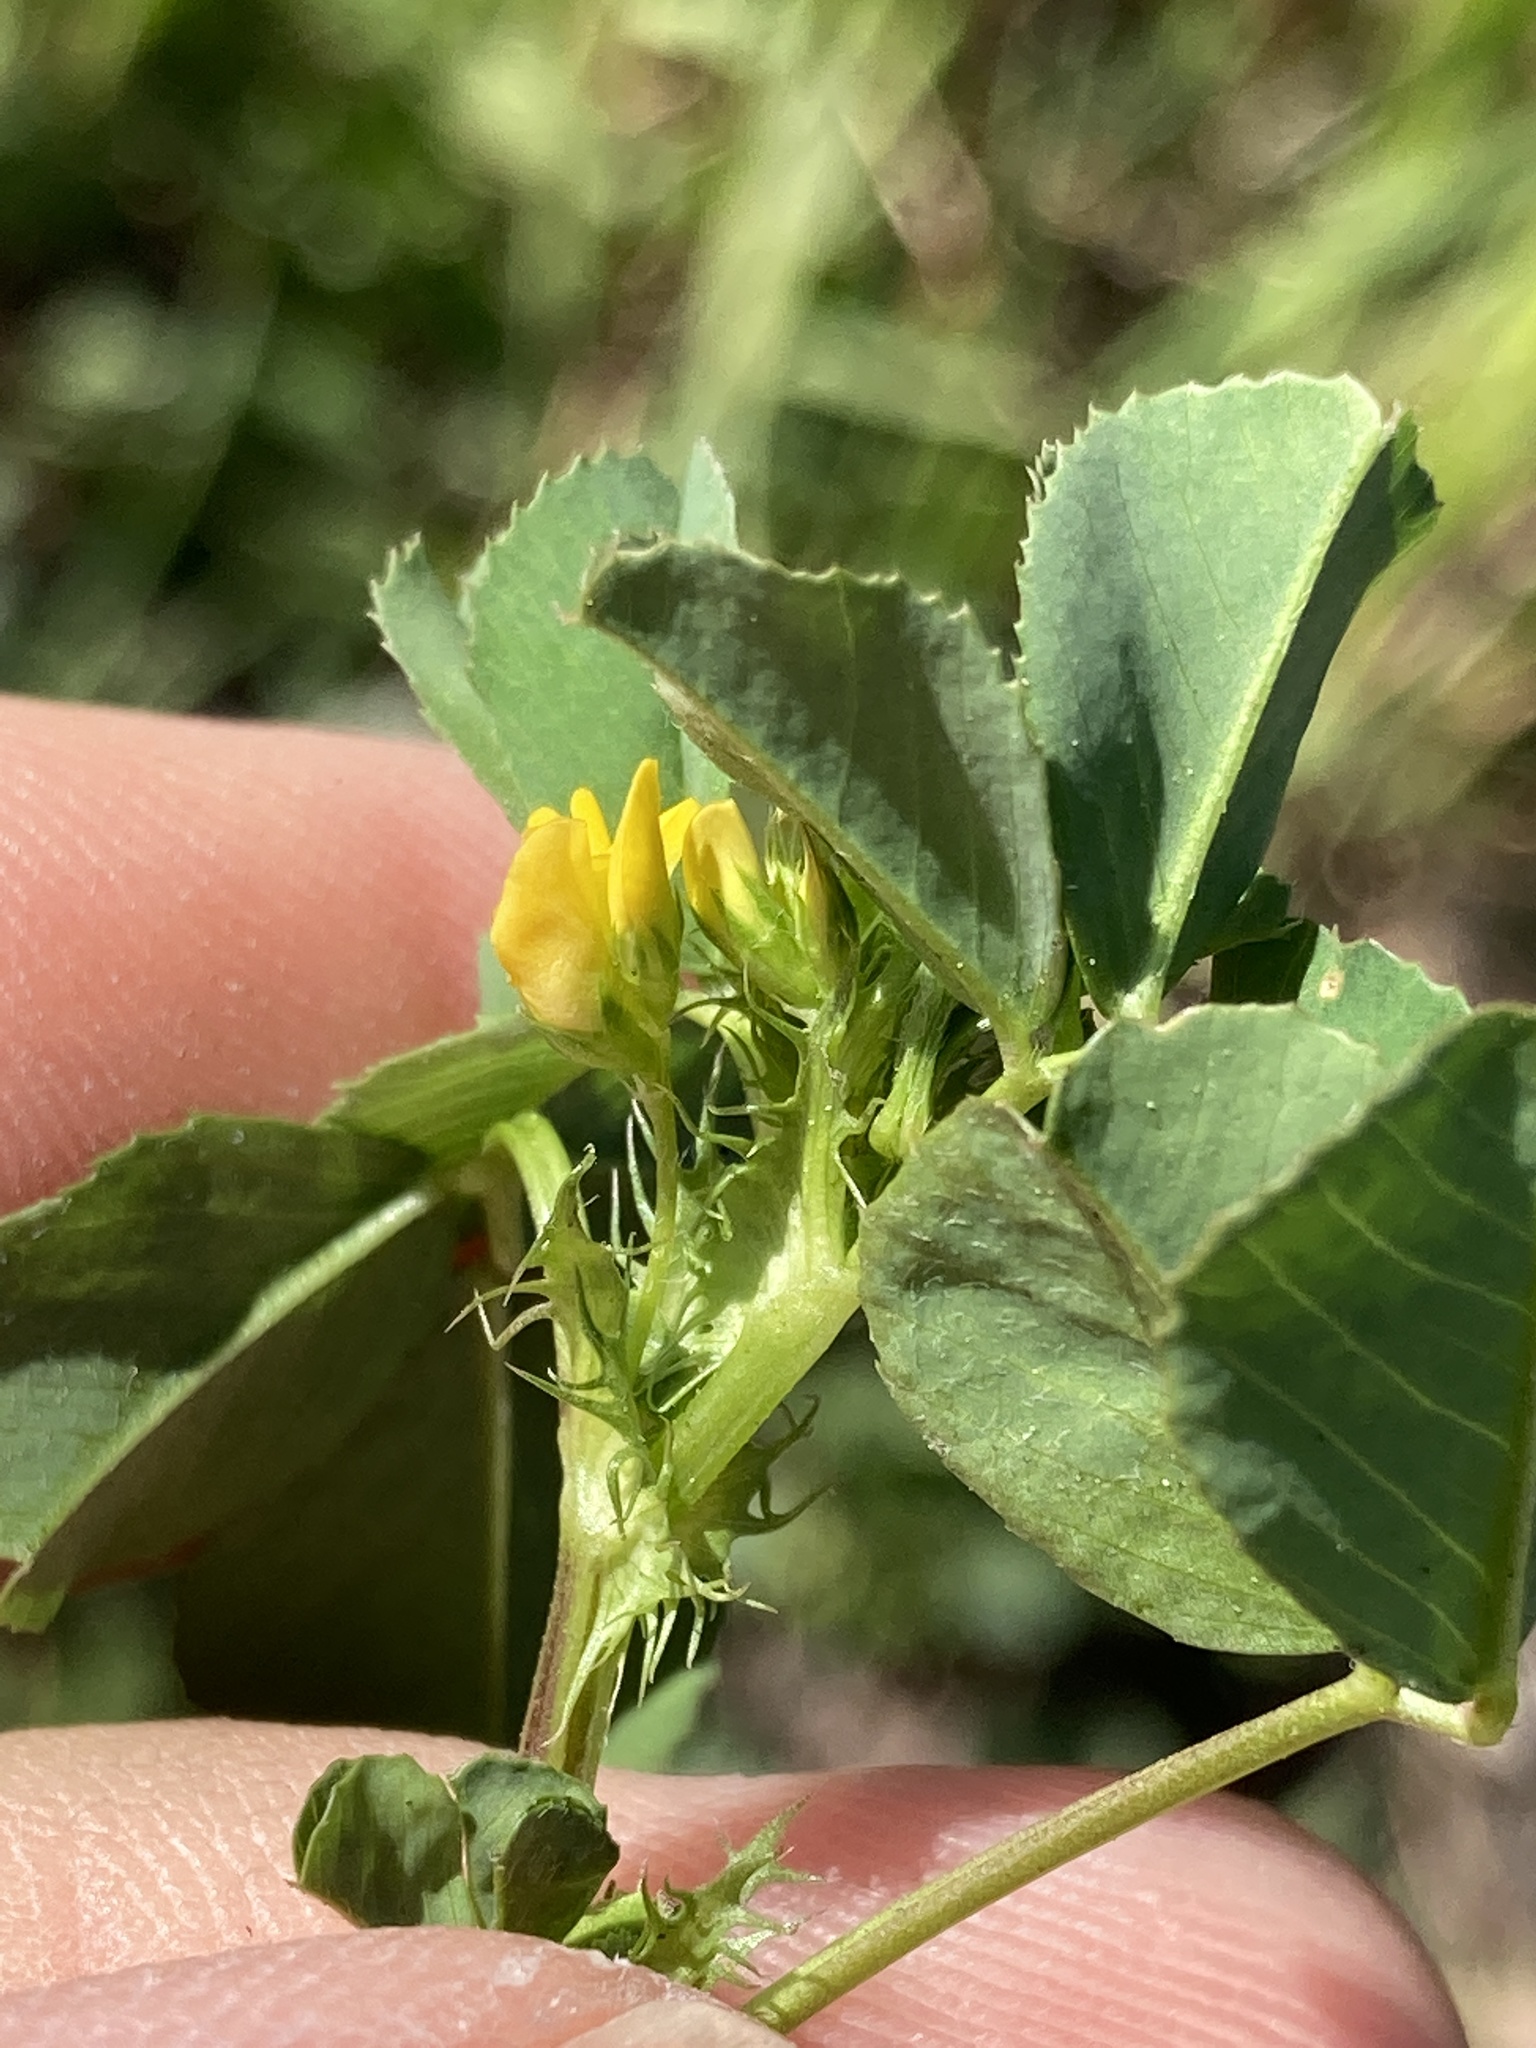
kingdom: Plantae
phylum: Tracheophyta
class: Magnoliopsida
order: Fabales
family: Fabaceae
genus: Medicago
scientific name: Medicago polymorpha
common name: Burclover
